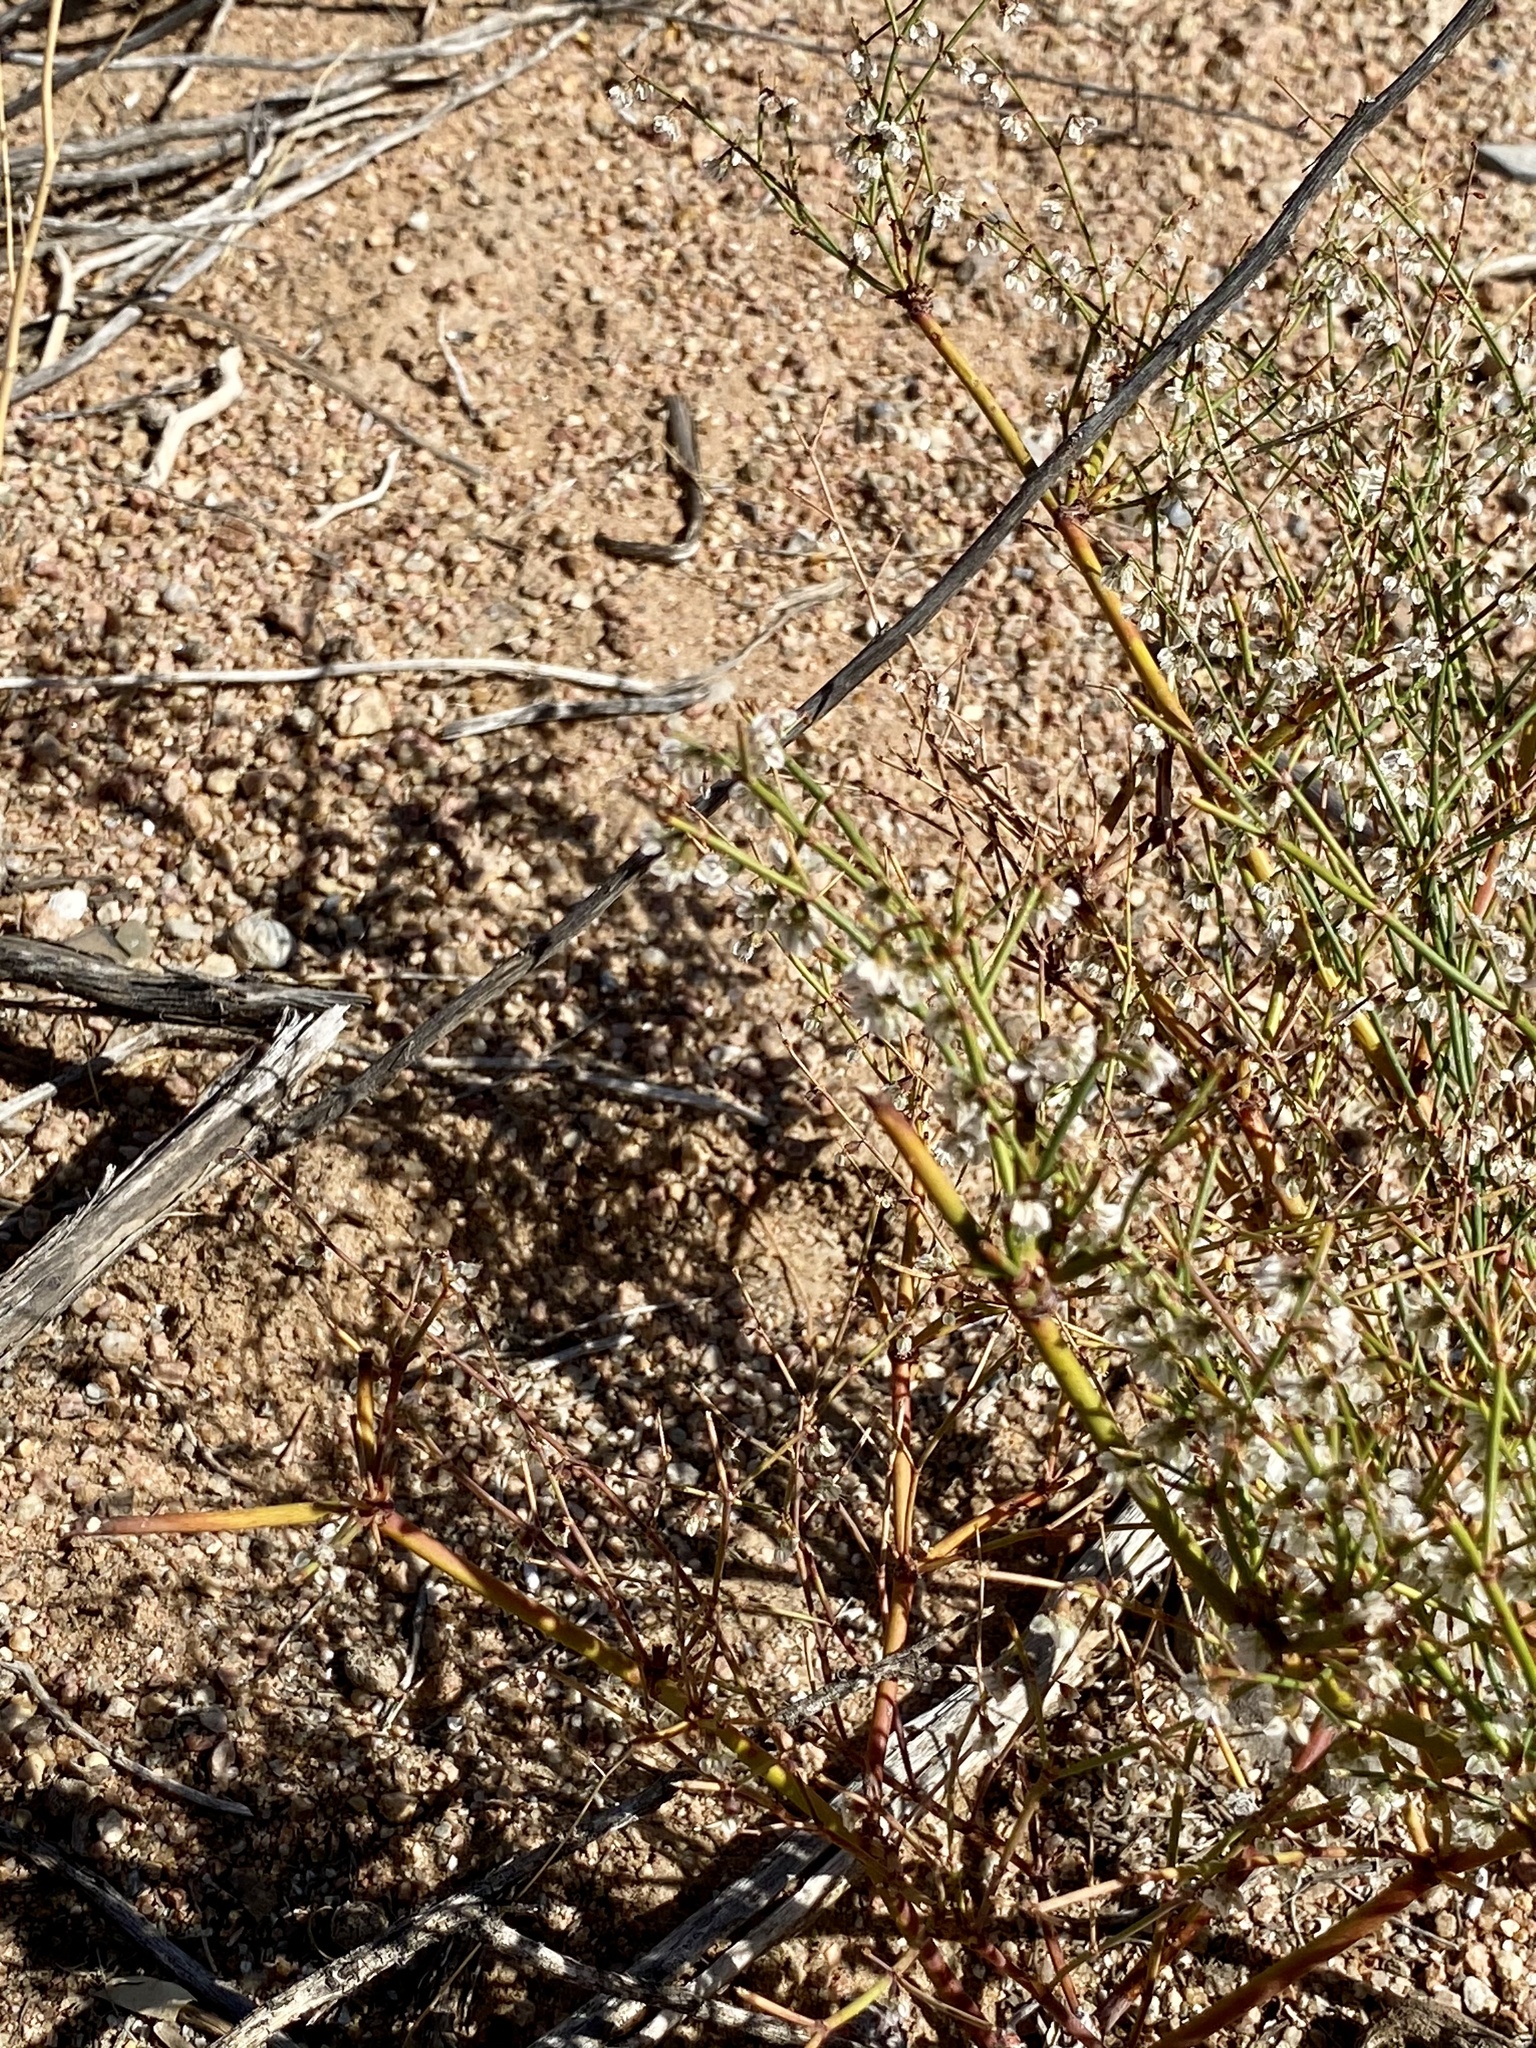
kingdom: Plantae
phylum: Tracheophyta
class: Magnoliopsida
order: Caryophyllales
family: Polygonaceae
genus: Eriogonum
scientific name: Eriogonum deflexum
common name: Skeleton-weed
